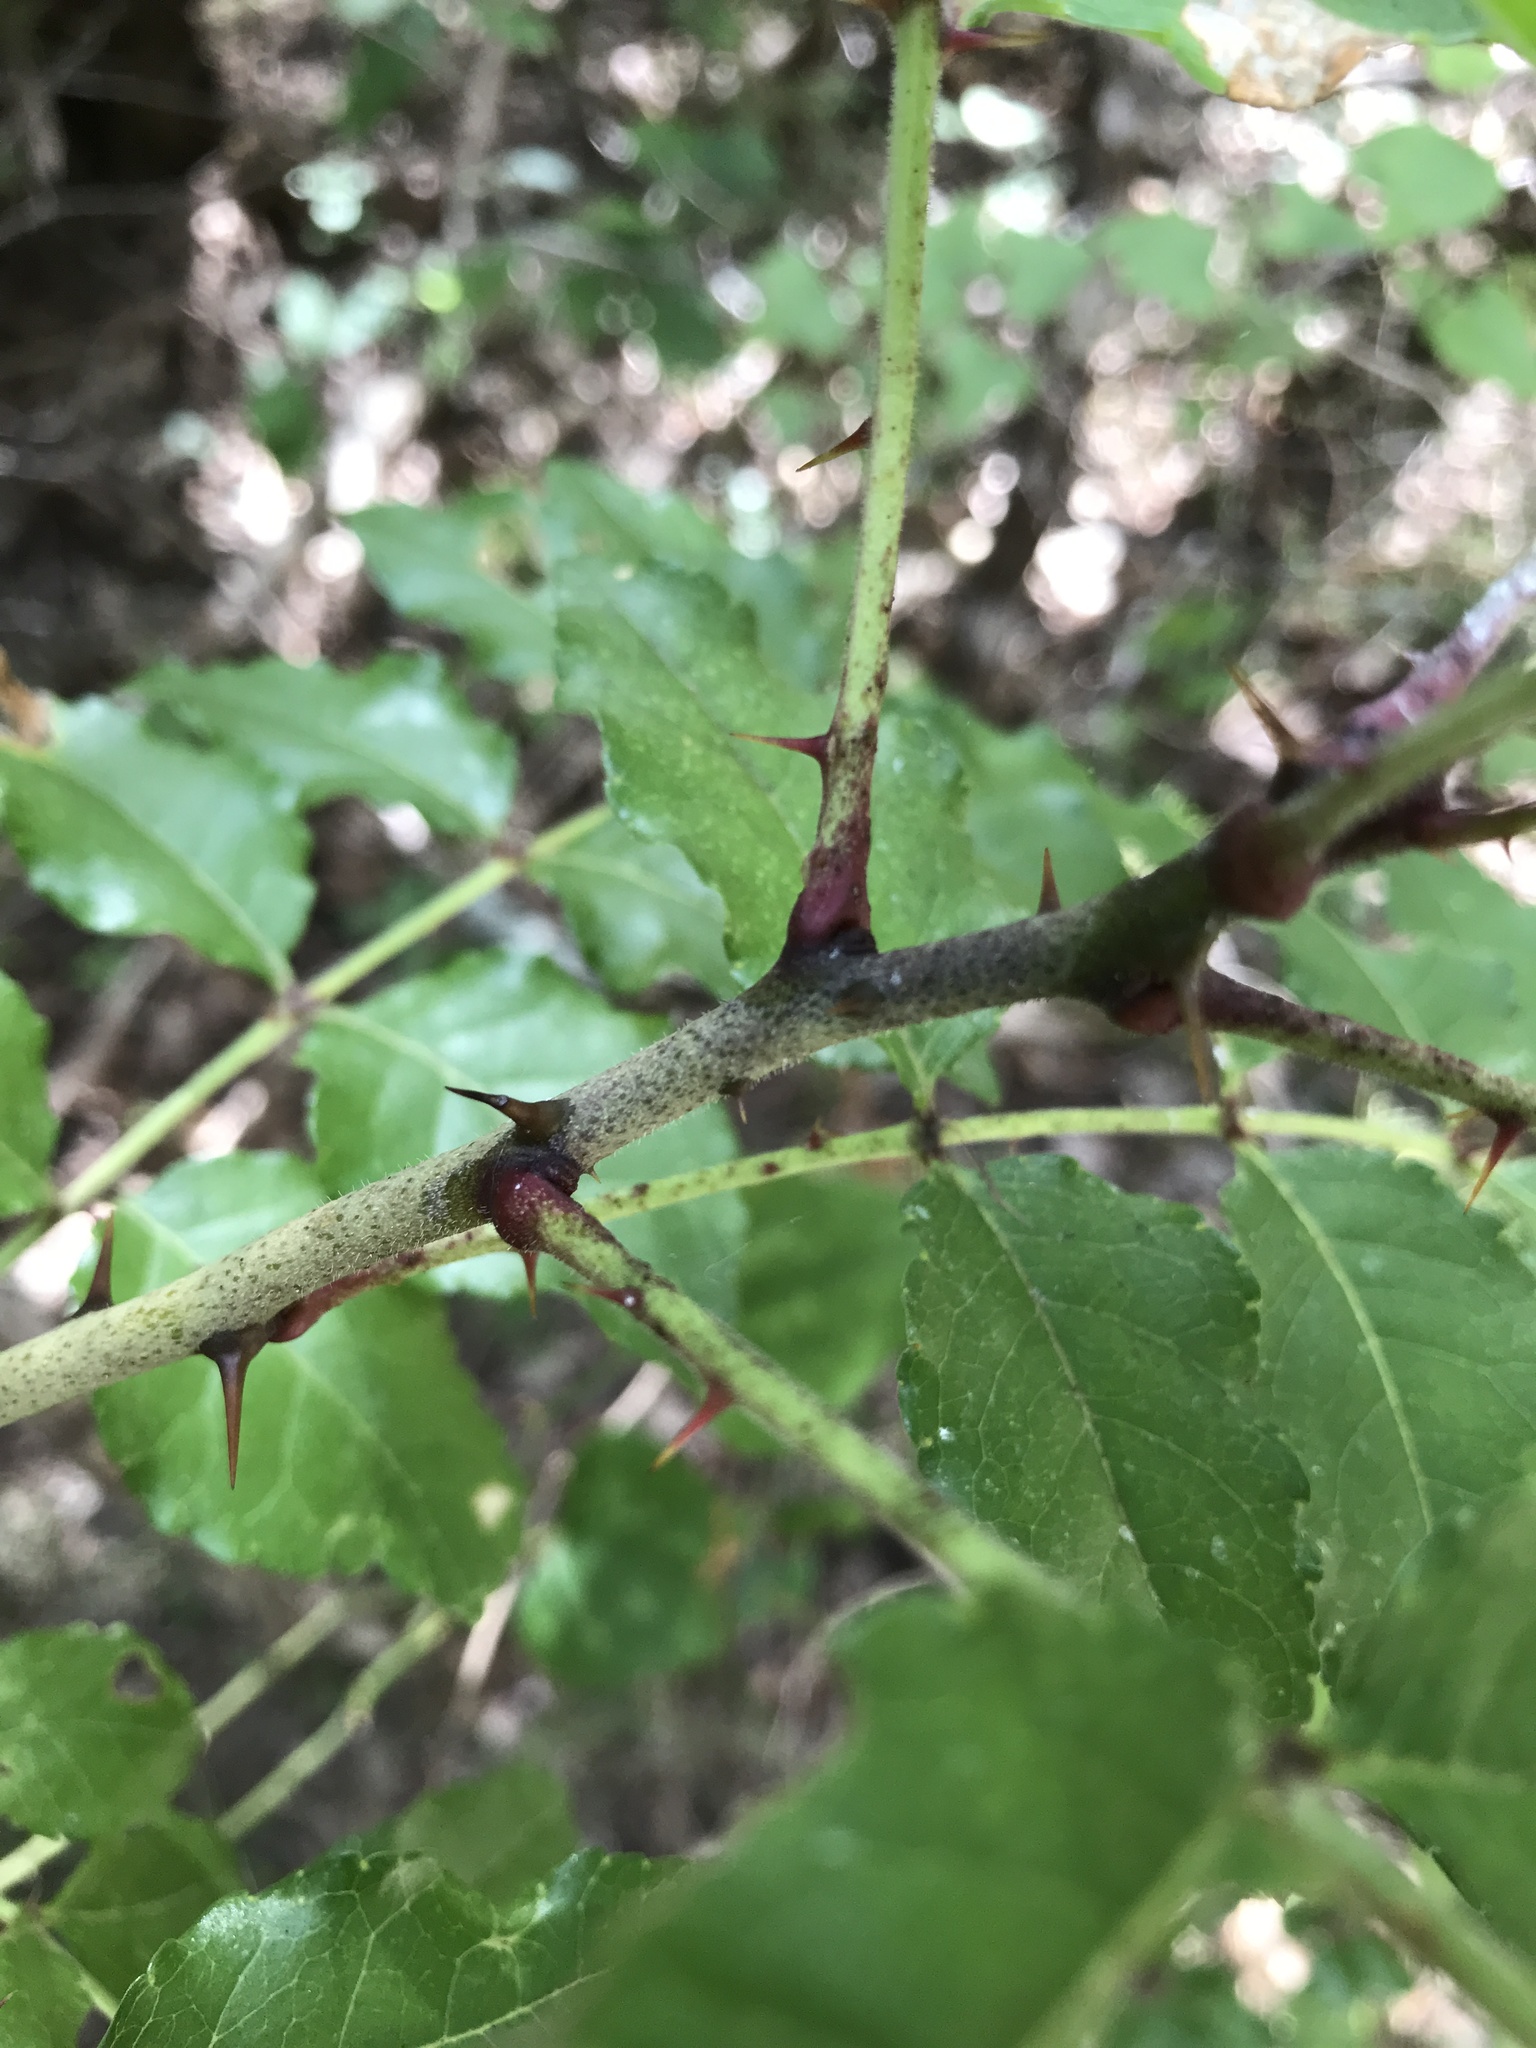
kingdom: Plantae
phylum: Tracheophyta
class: Magnoliopsida
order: Sapindales
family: Rutaceae
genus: Zanthoxylum
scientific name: Zanthoxylum clava-herculis
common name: Hercules'-club
